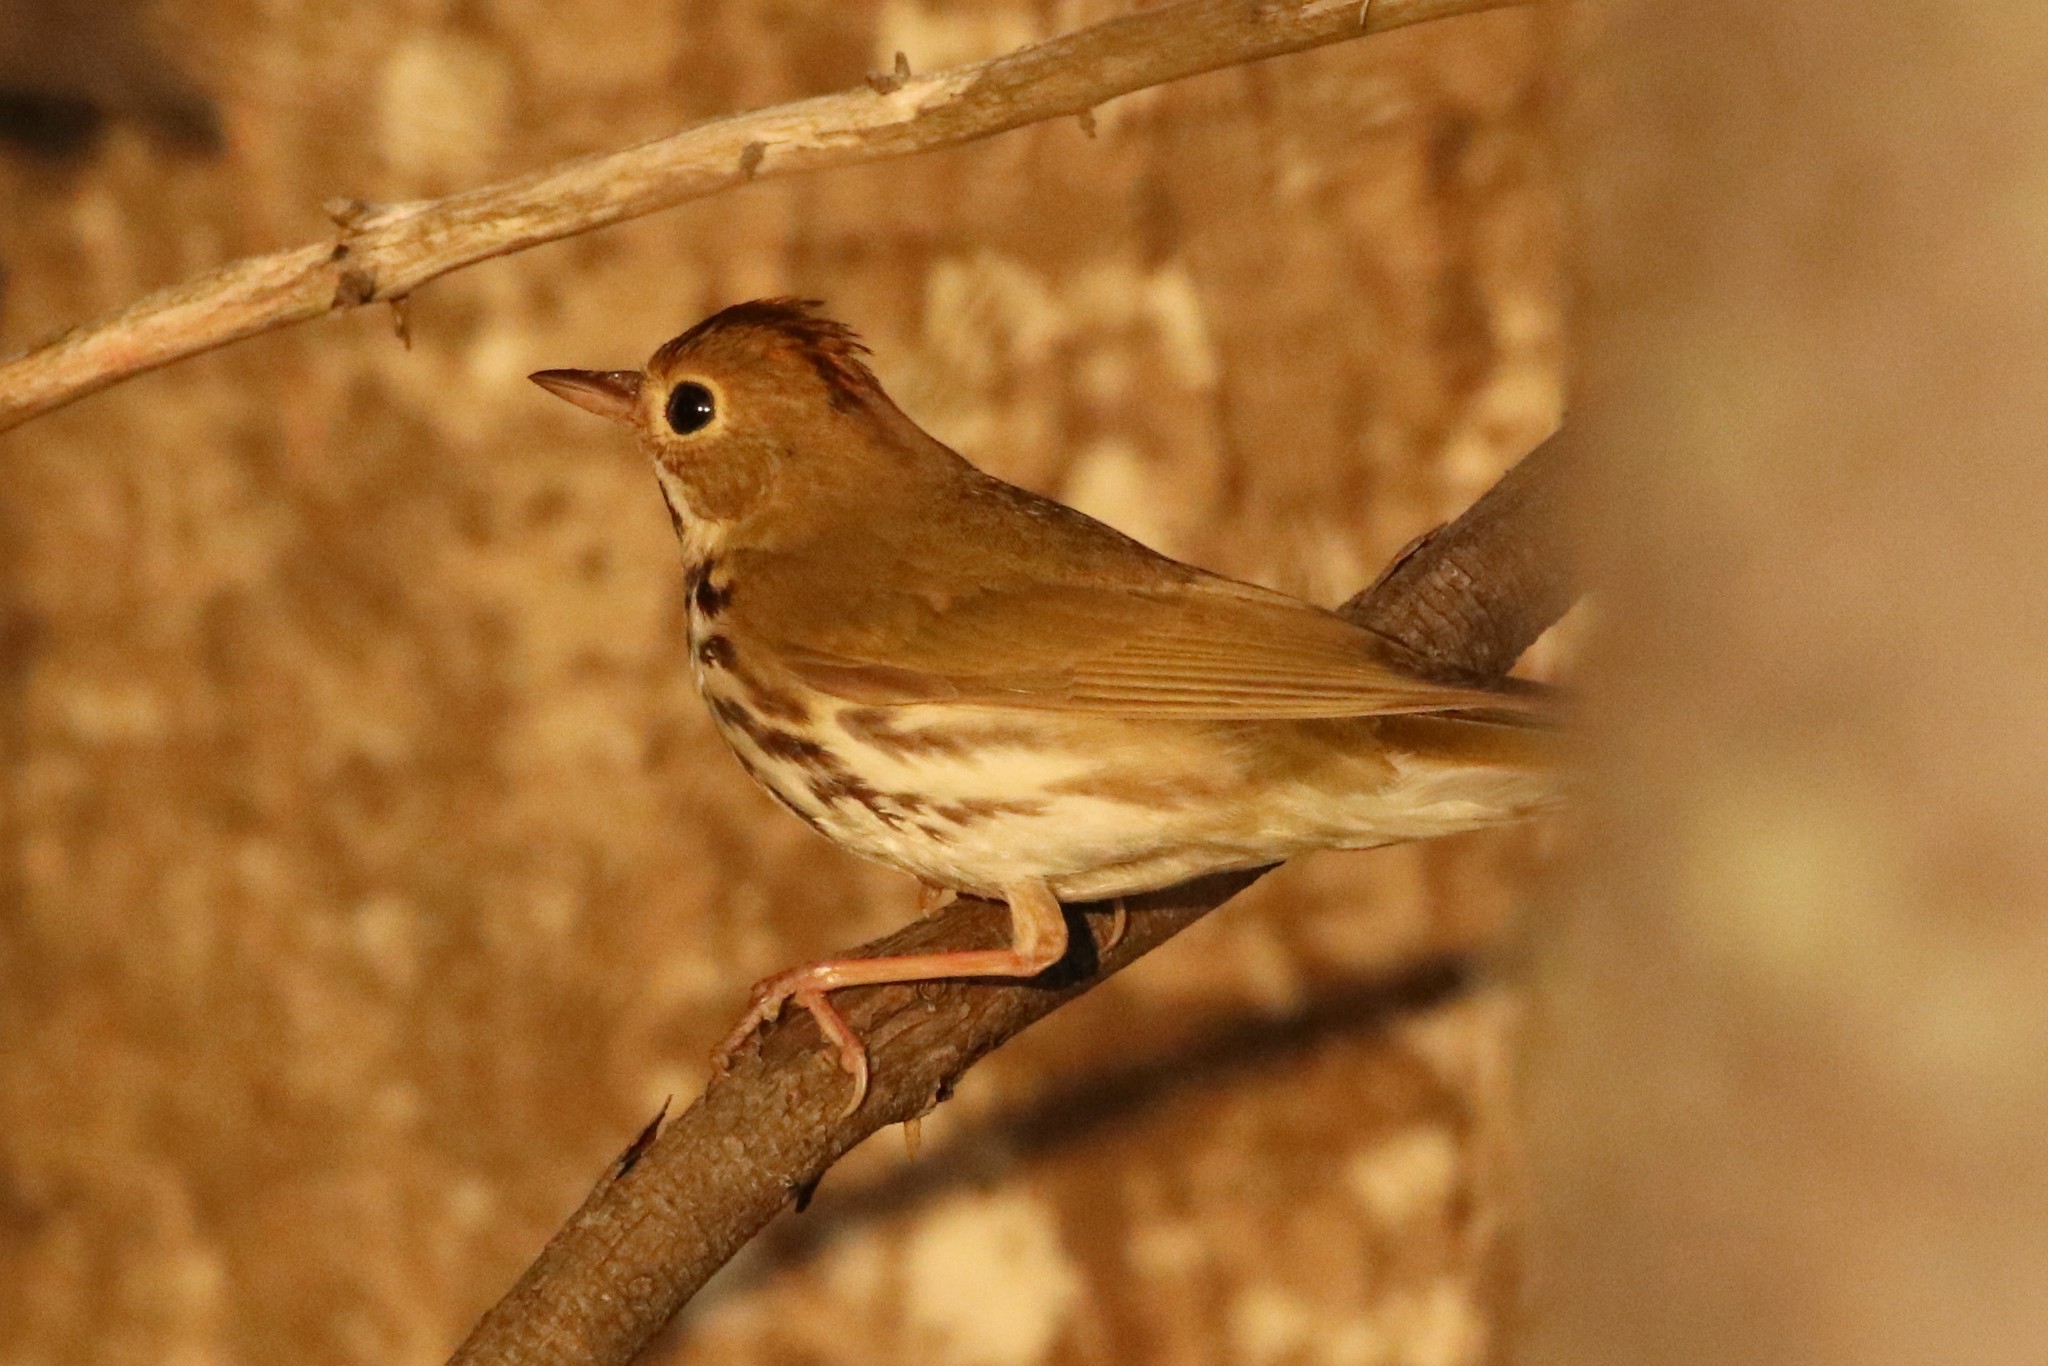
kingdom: Animalia
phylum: Chordata
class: Aves
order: Passeriformes
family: Parulidae
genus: Seiurus
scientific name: Seiurus aurocapilla
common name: Ovenbird
